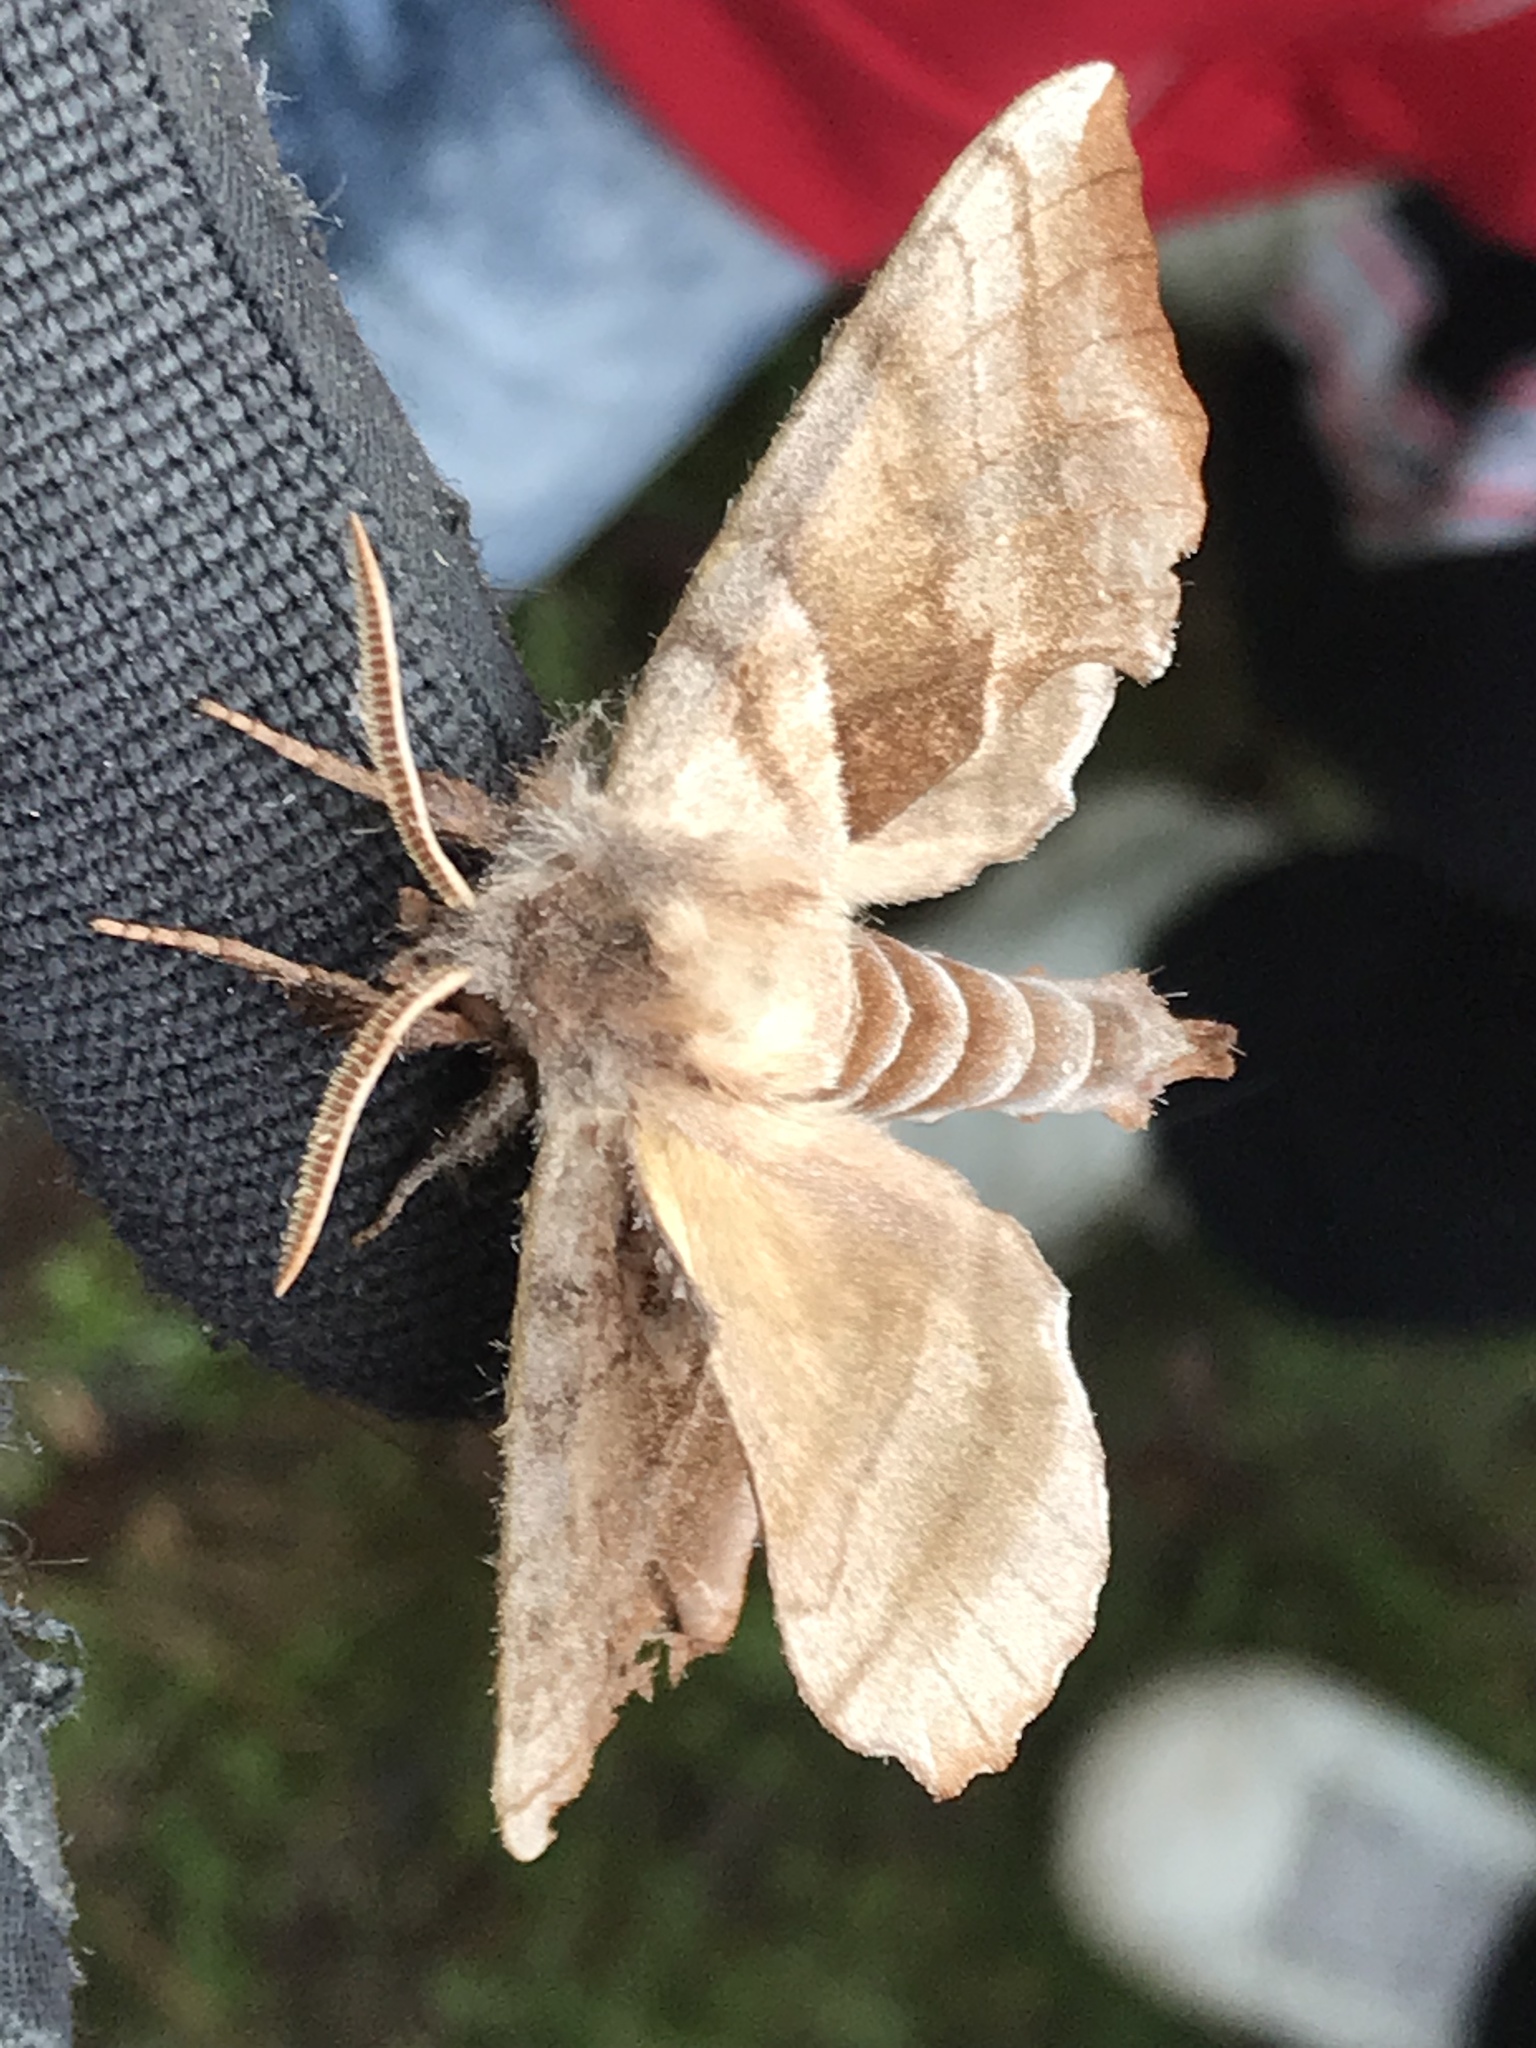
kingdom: Animalia
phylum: Arthropoda
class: Insecta
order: Lepidoptera
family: Sphingidae
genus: Amorpha
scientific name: Amorpha juglandis
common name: Walnut sphinx
